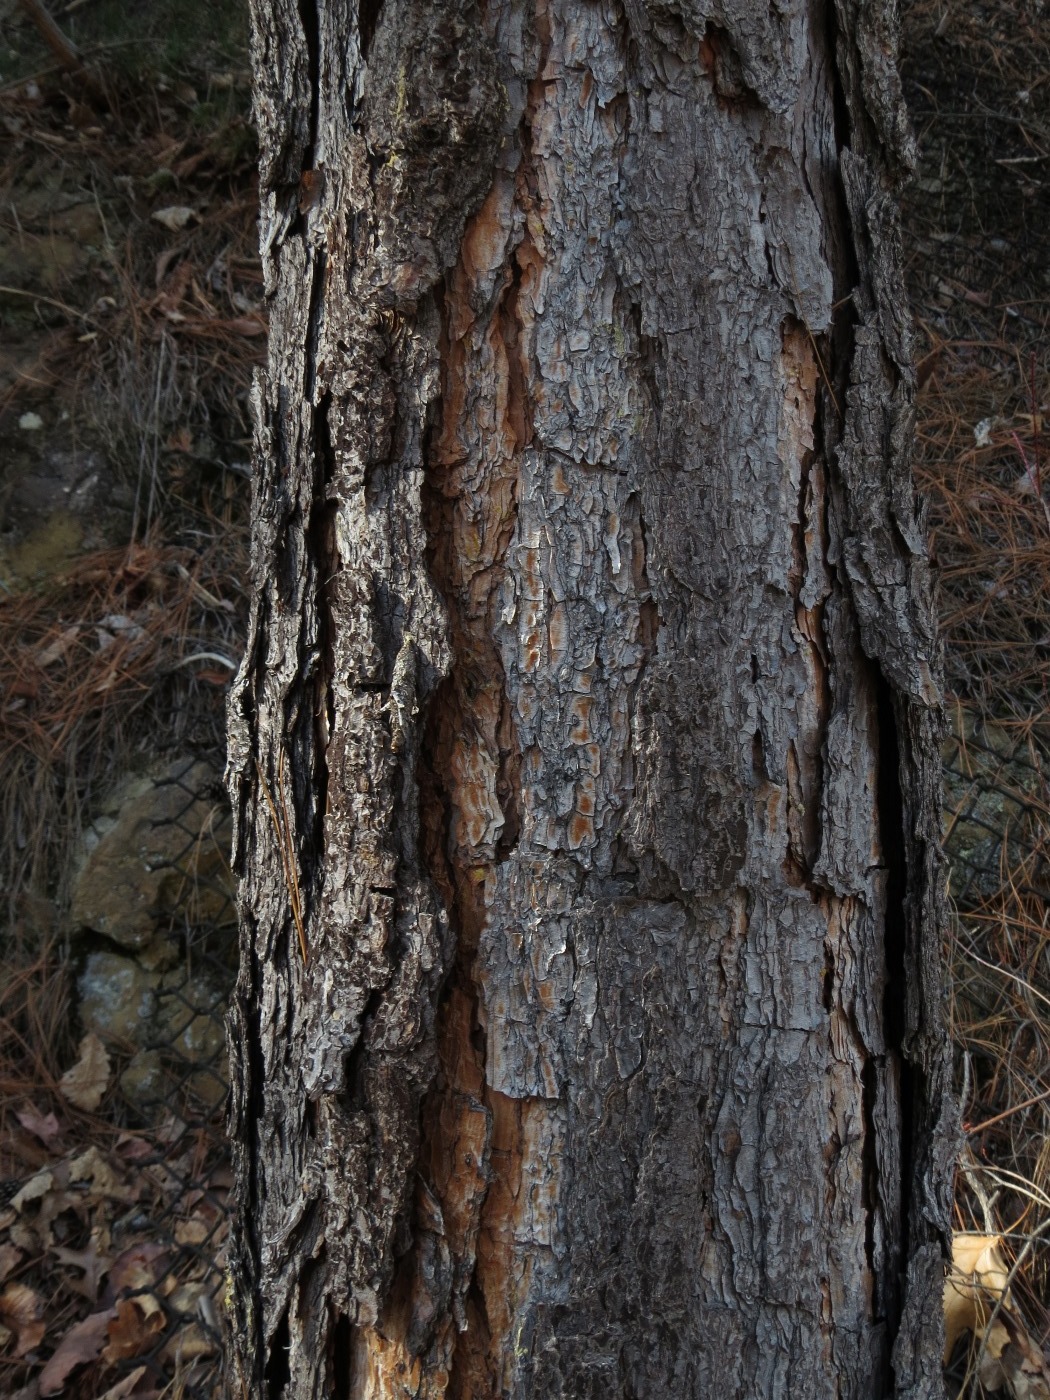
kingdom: Plantae
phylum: Tracheophyta
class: Pinopsida
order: Pinales
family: Pinaceae
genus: Pinus
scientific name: Pinus palustris
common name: Longleaf pine
